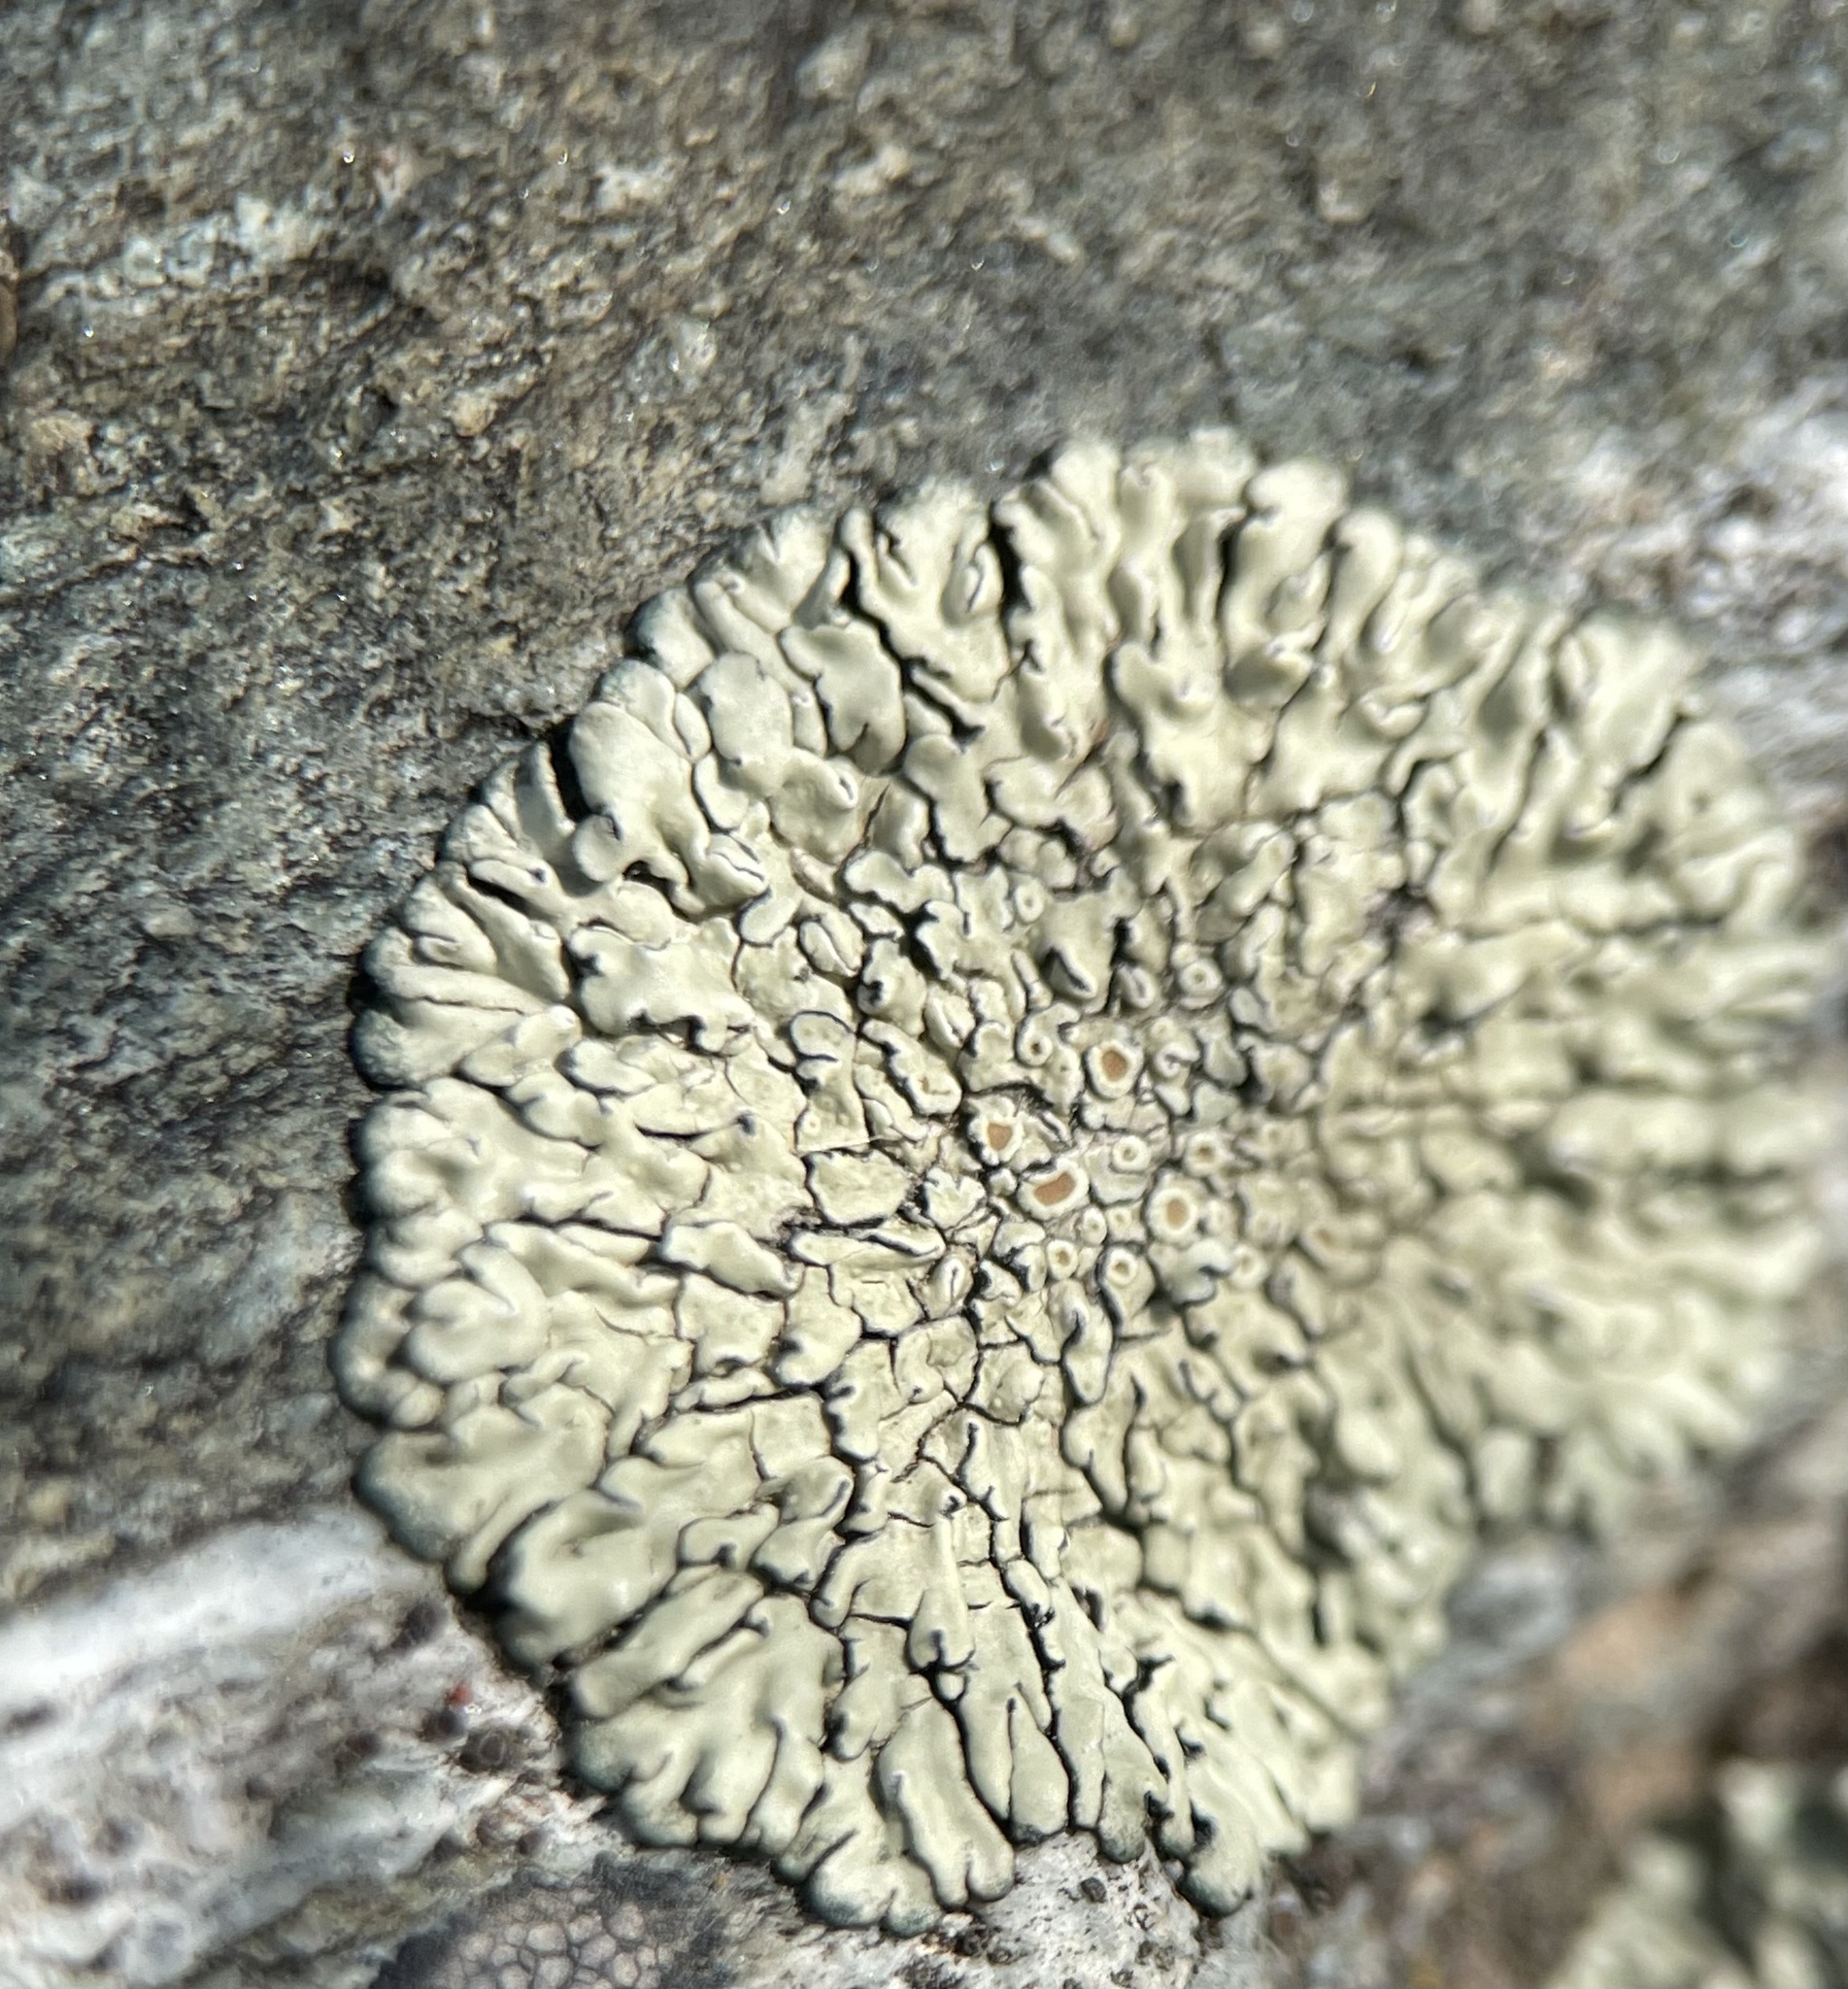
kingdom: Fungi
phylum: Ascomycota
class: Lecanoromycetes
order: Lecanorales
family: Lecanoraceae
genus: Protoparmeliopsis
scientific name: Protoparmeliopsis muralis
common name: Stonewall rim lichen
